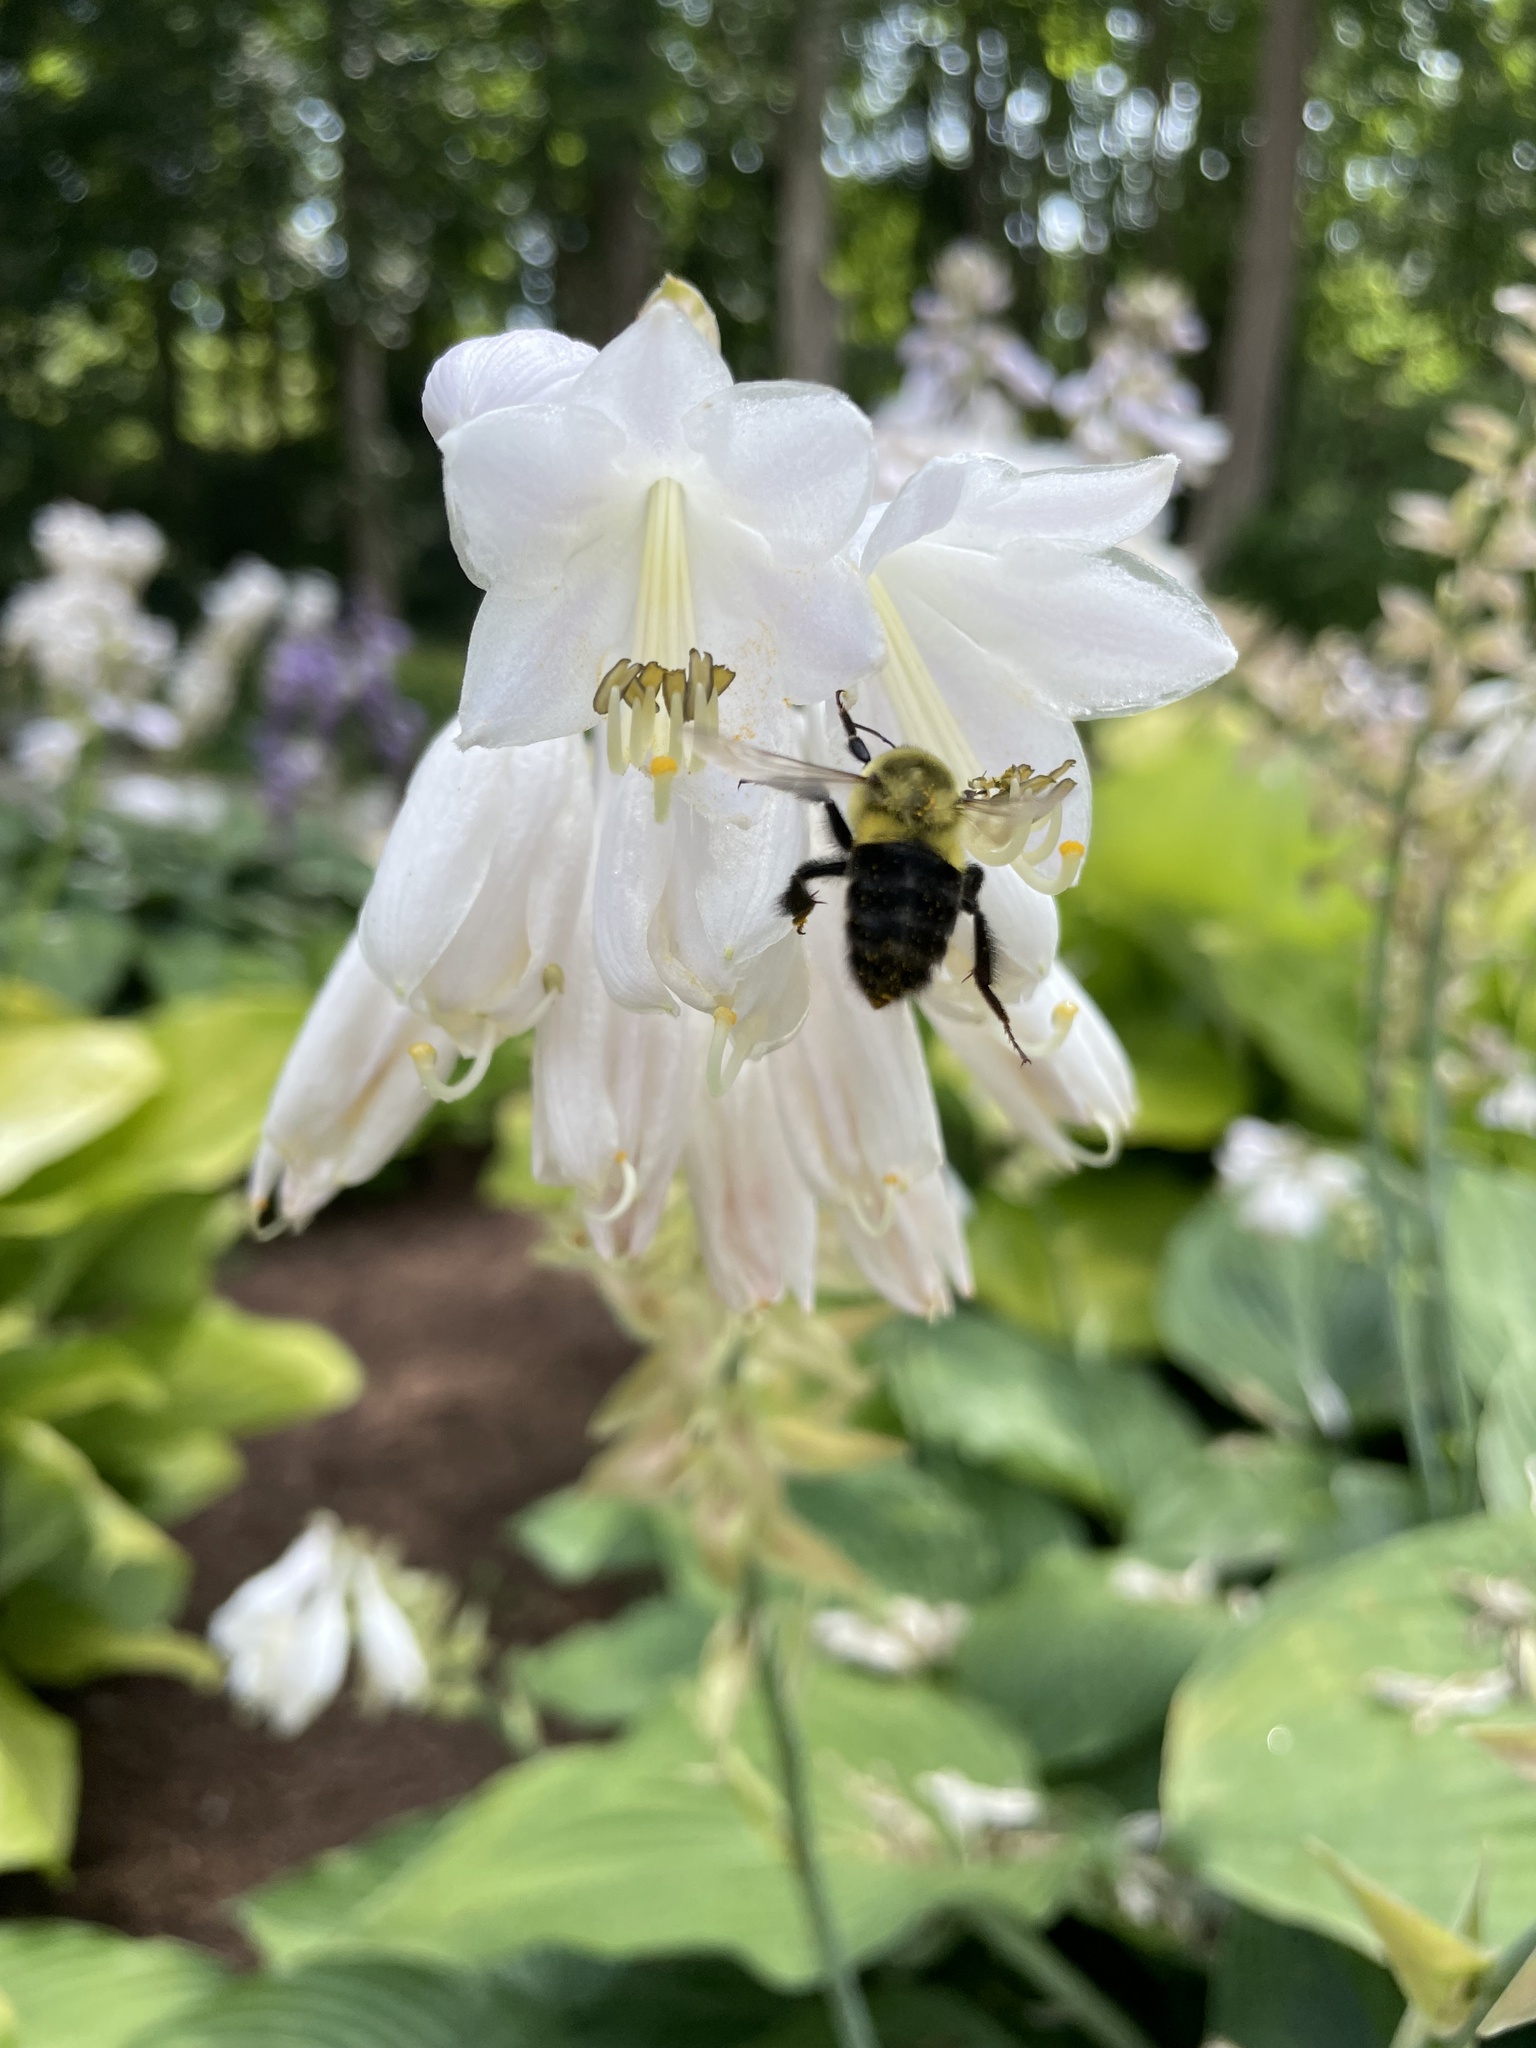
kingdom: Animalia
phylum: Arthropoda
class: Insecta
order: Hymenoptera
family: Apidae
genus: Bombus
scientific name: Bombus impatiens
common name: Common eastern bumble bee
